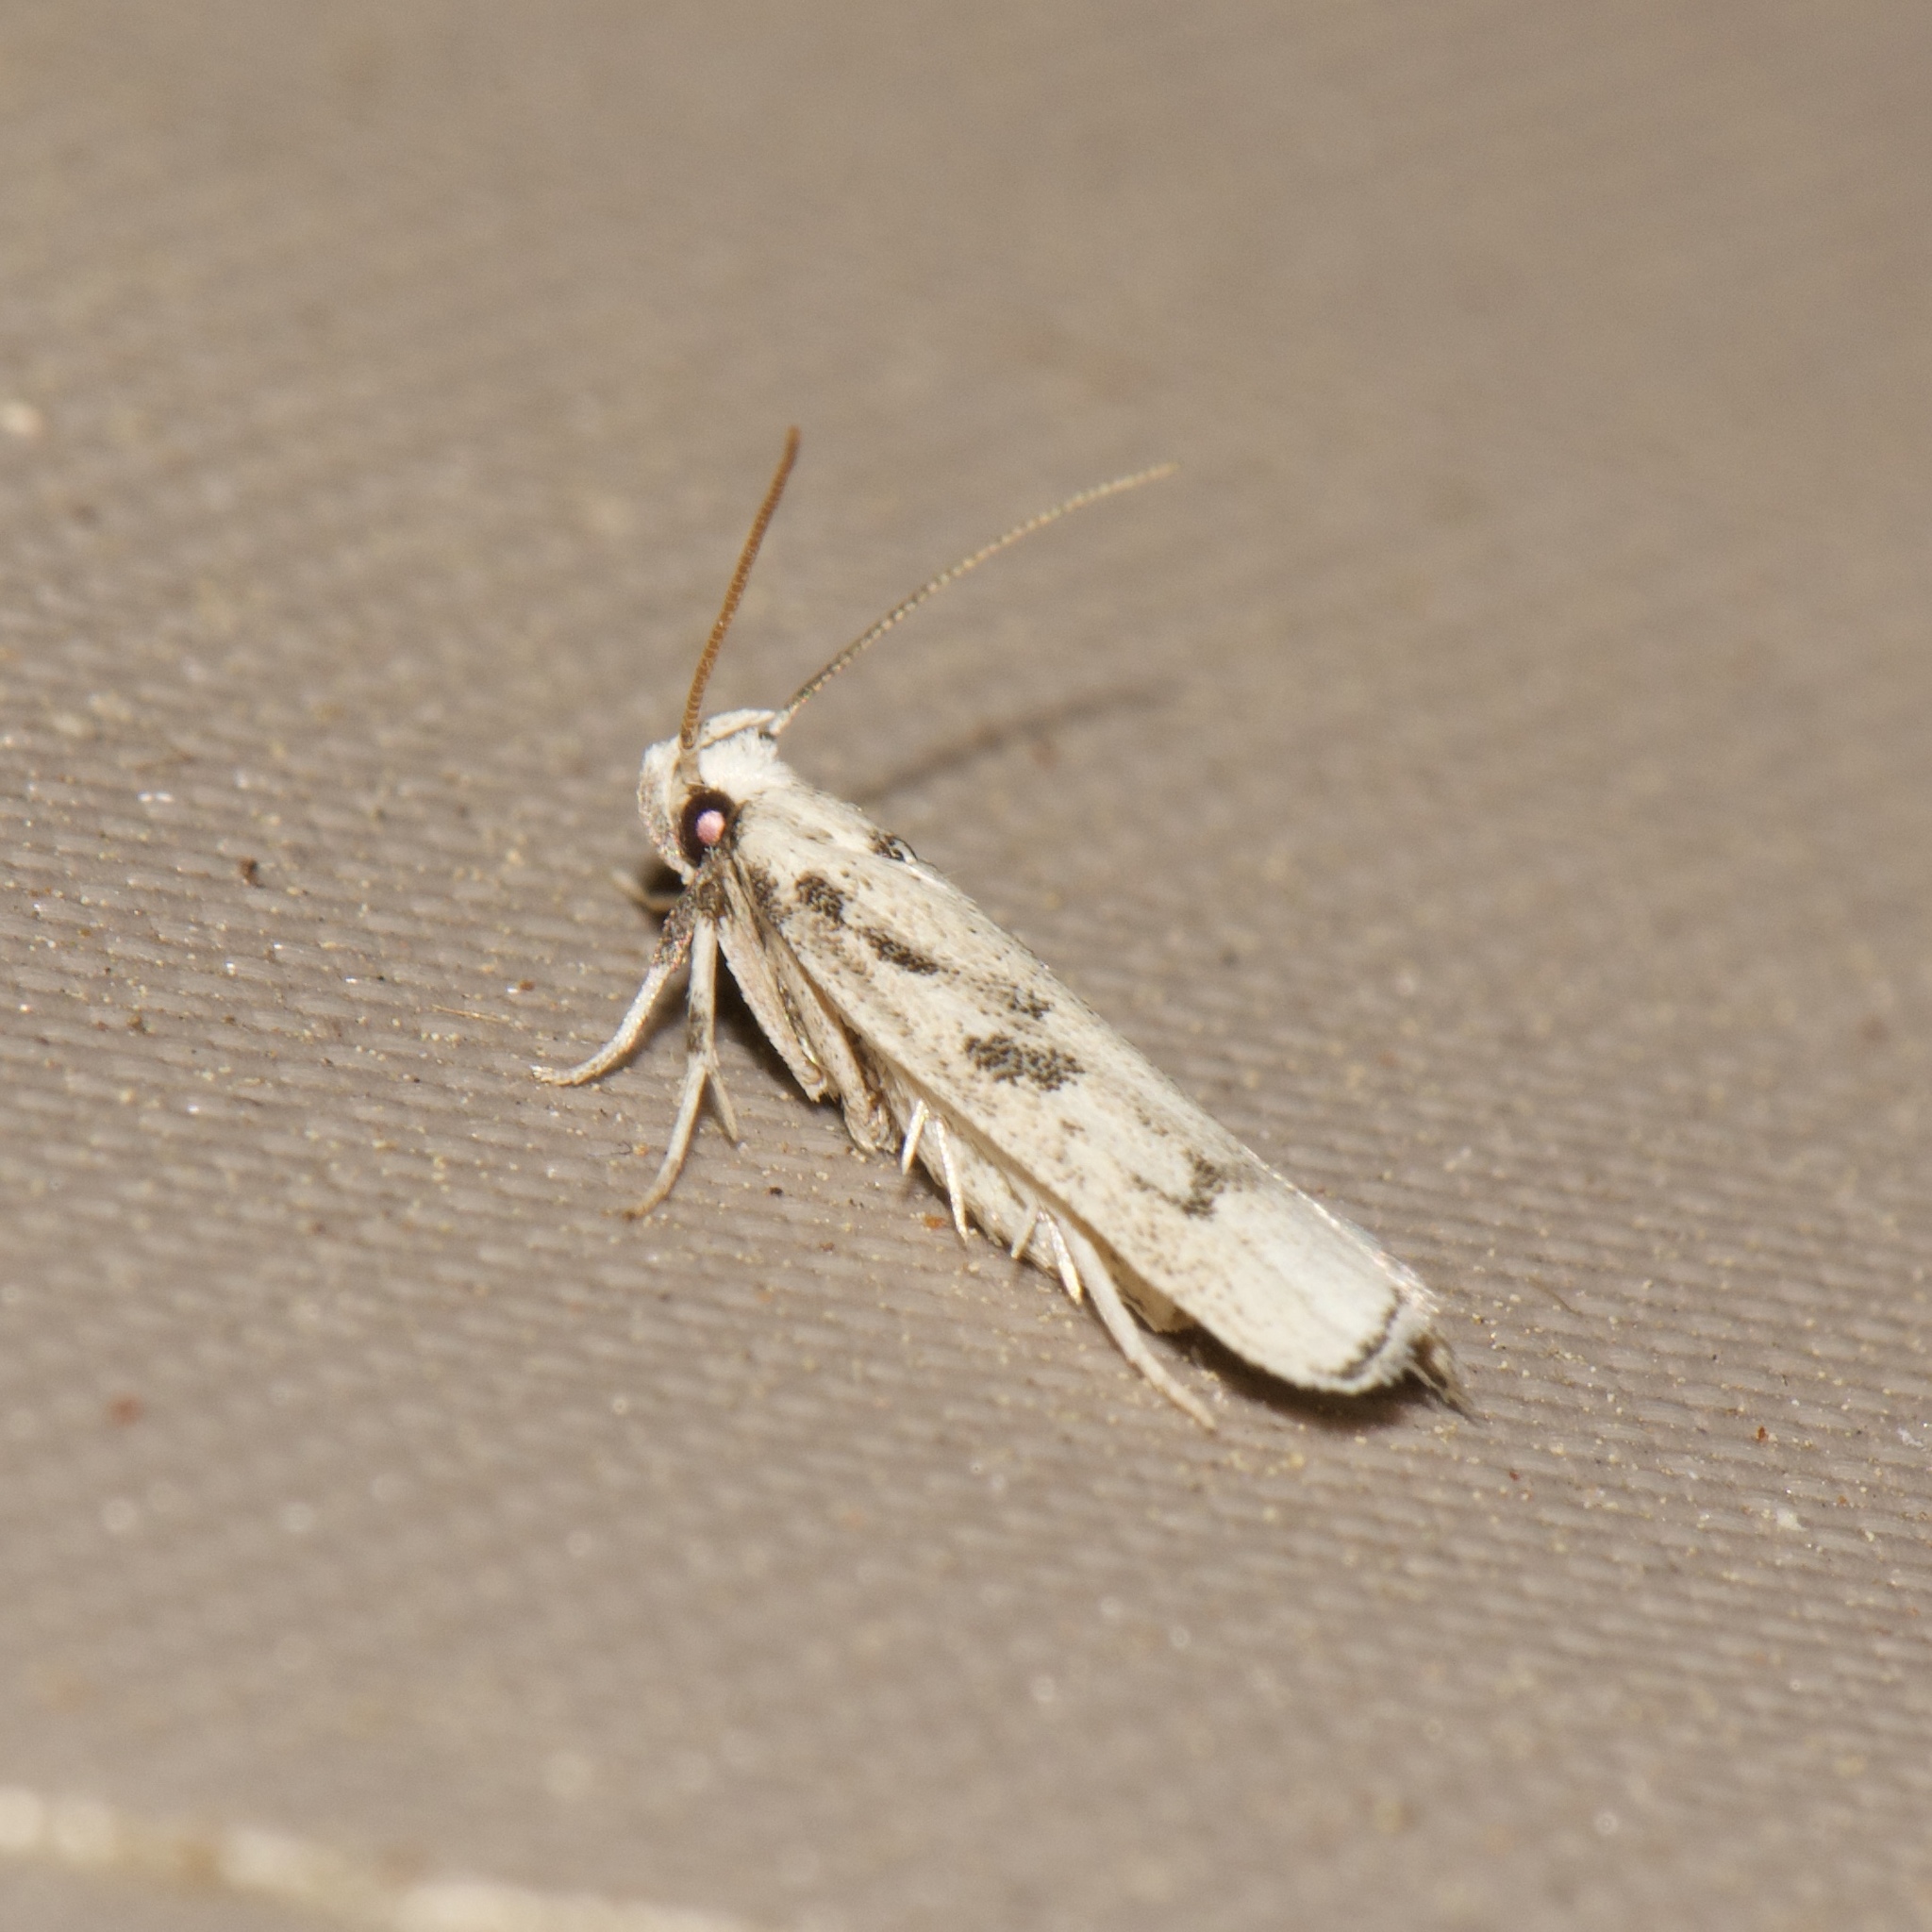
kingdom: Animalia
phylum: Arthropoda
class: Insecta
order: Lepidoptera
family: Autostichidae
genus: Glyphidocera
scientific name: Glyphidocera lactiflosella
